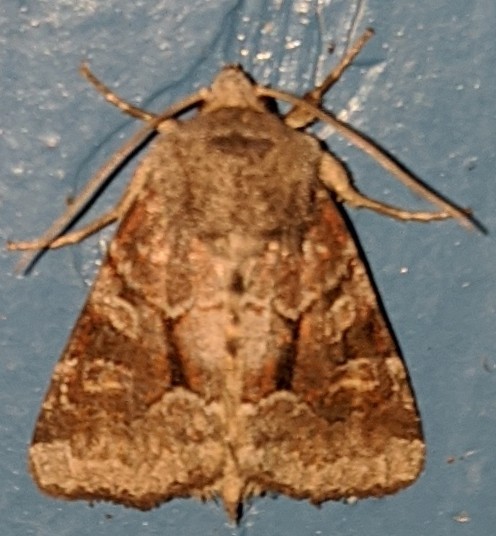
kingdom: Animalia
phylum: Arthropoda
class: Insecta
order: Lepidoptera
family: Noctuidae
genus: Oligia
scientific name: Oligia minuscula
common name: Small brocade
